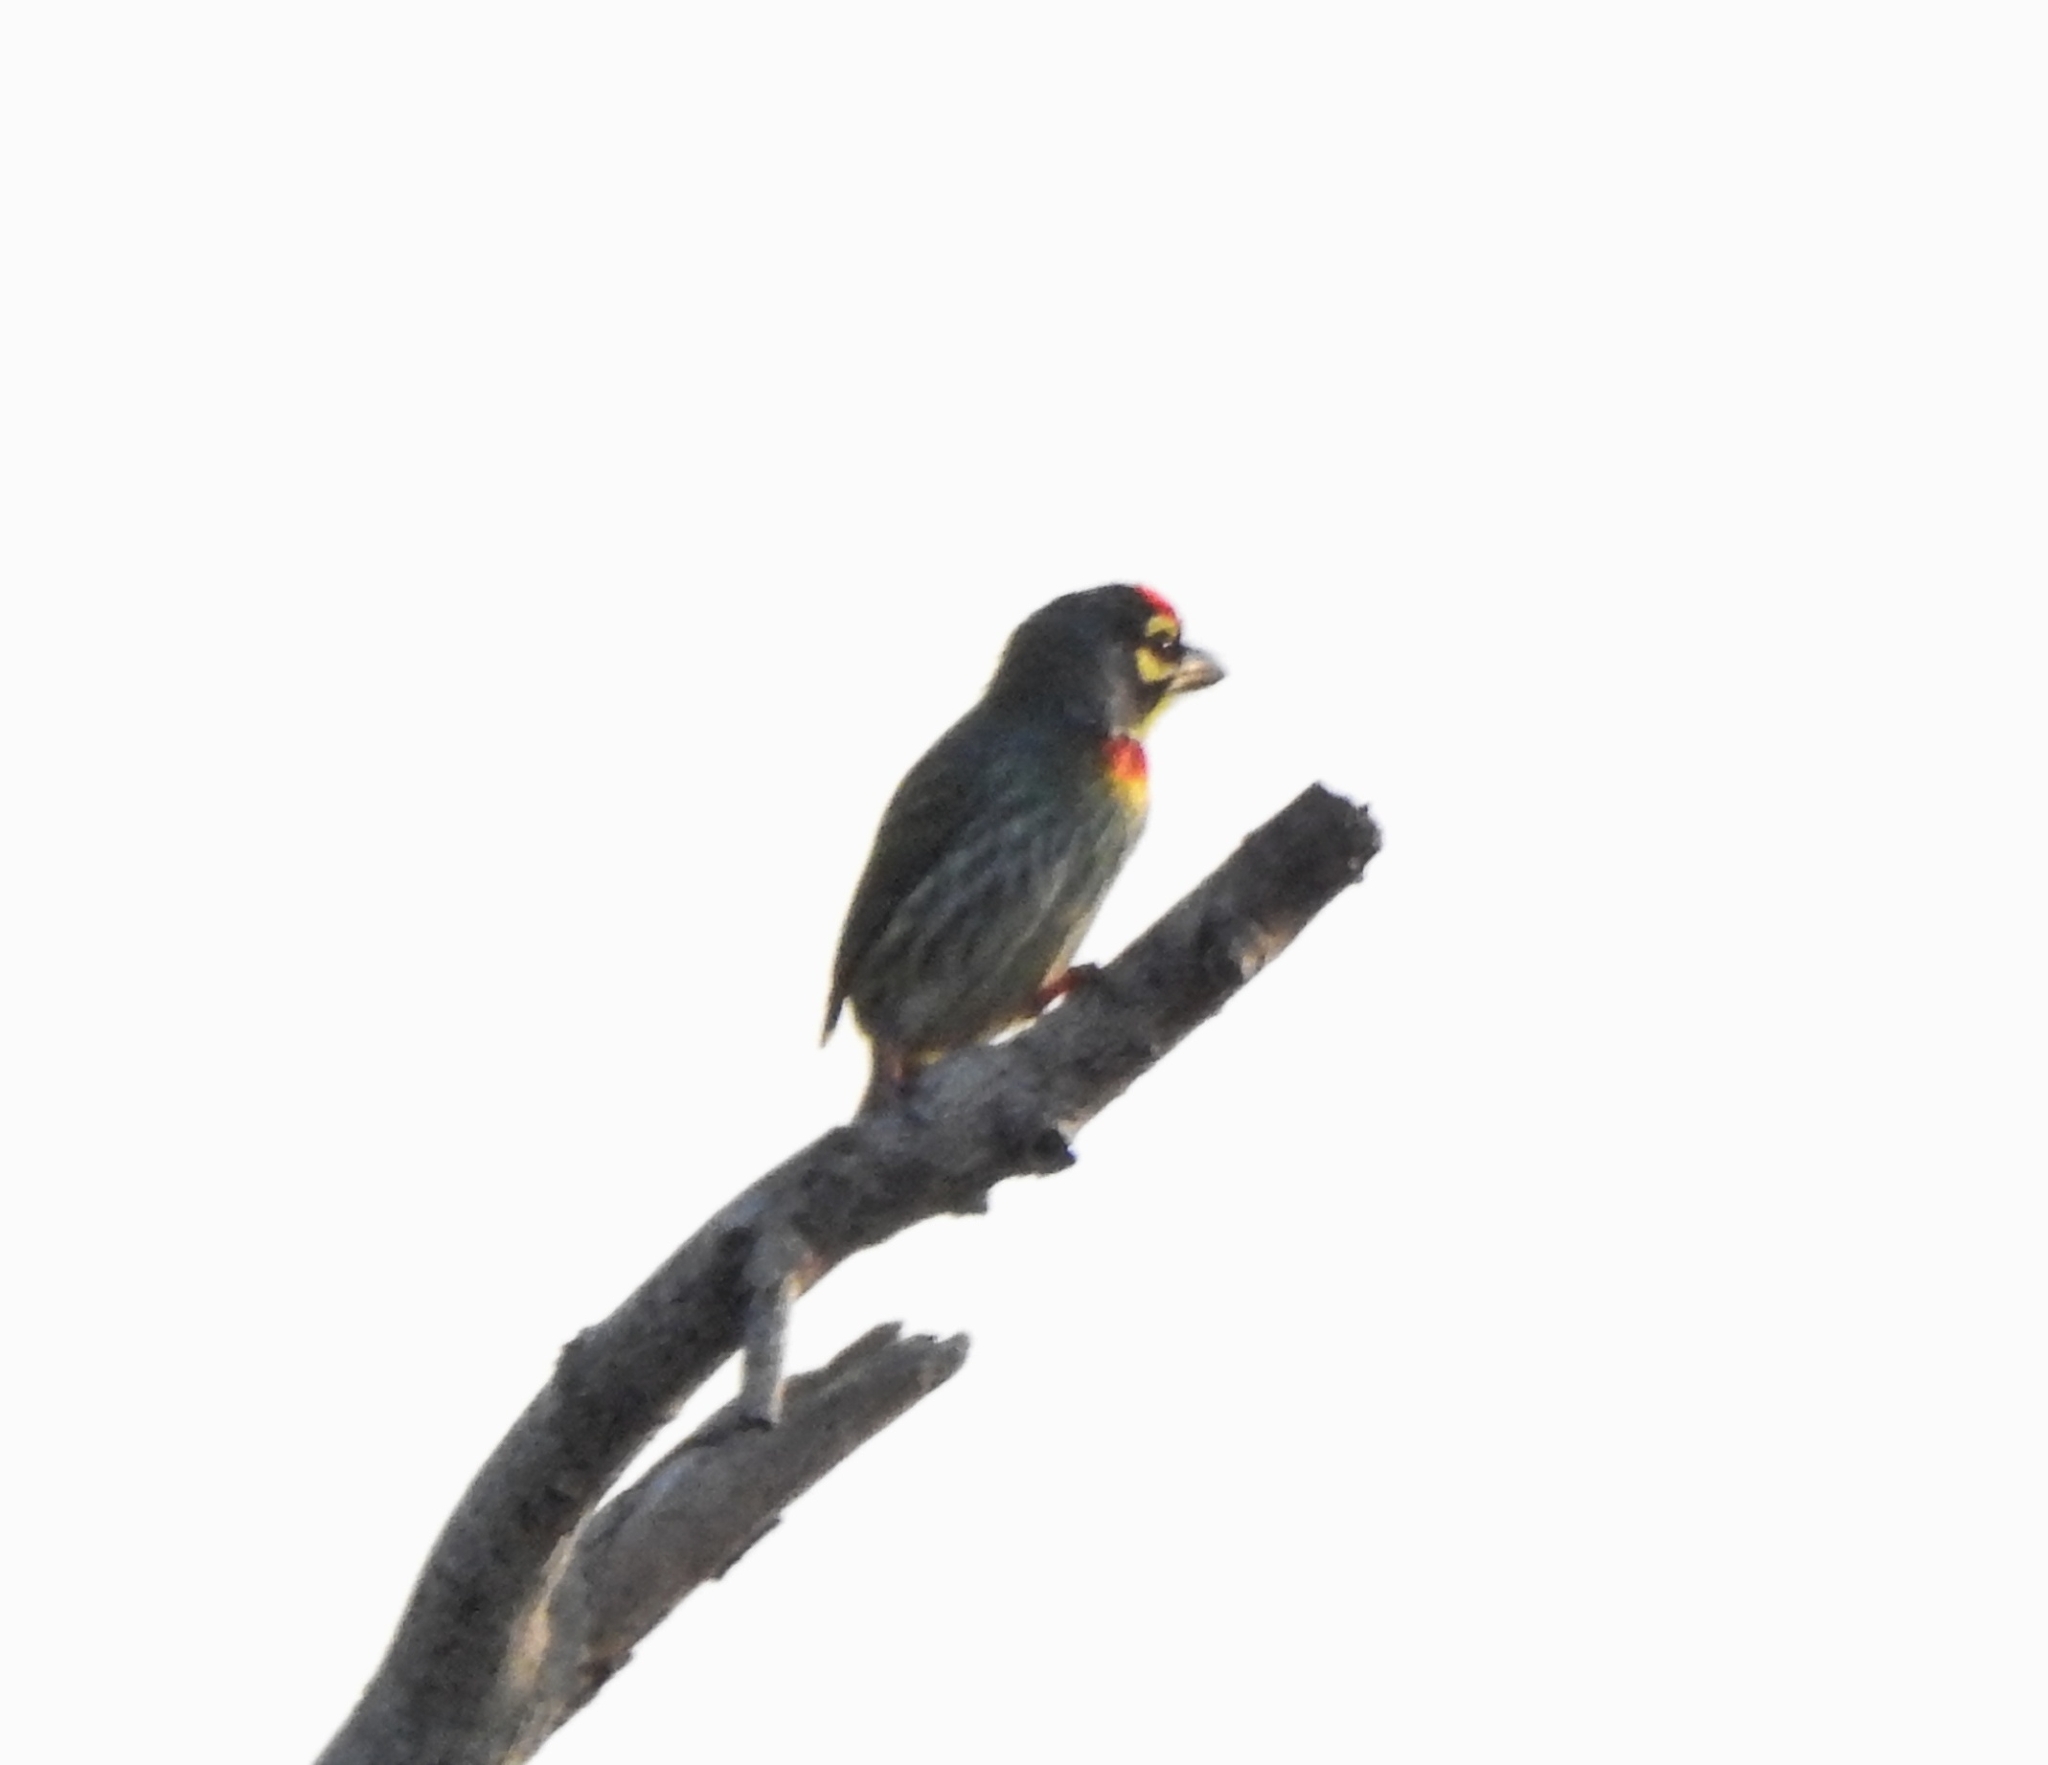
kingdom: Animalia
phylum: Chordata
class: Aves
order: Piciformes
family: Megalaimidae
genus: Psilopogon
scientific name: Psilopogon haemacephalus
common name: Coppersmith barbet
